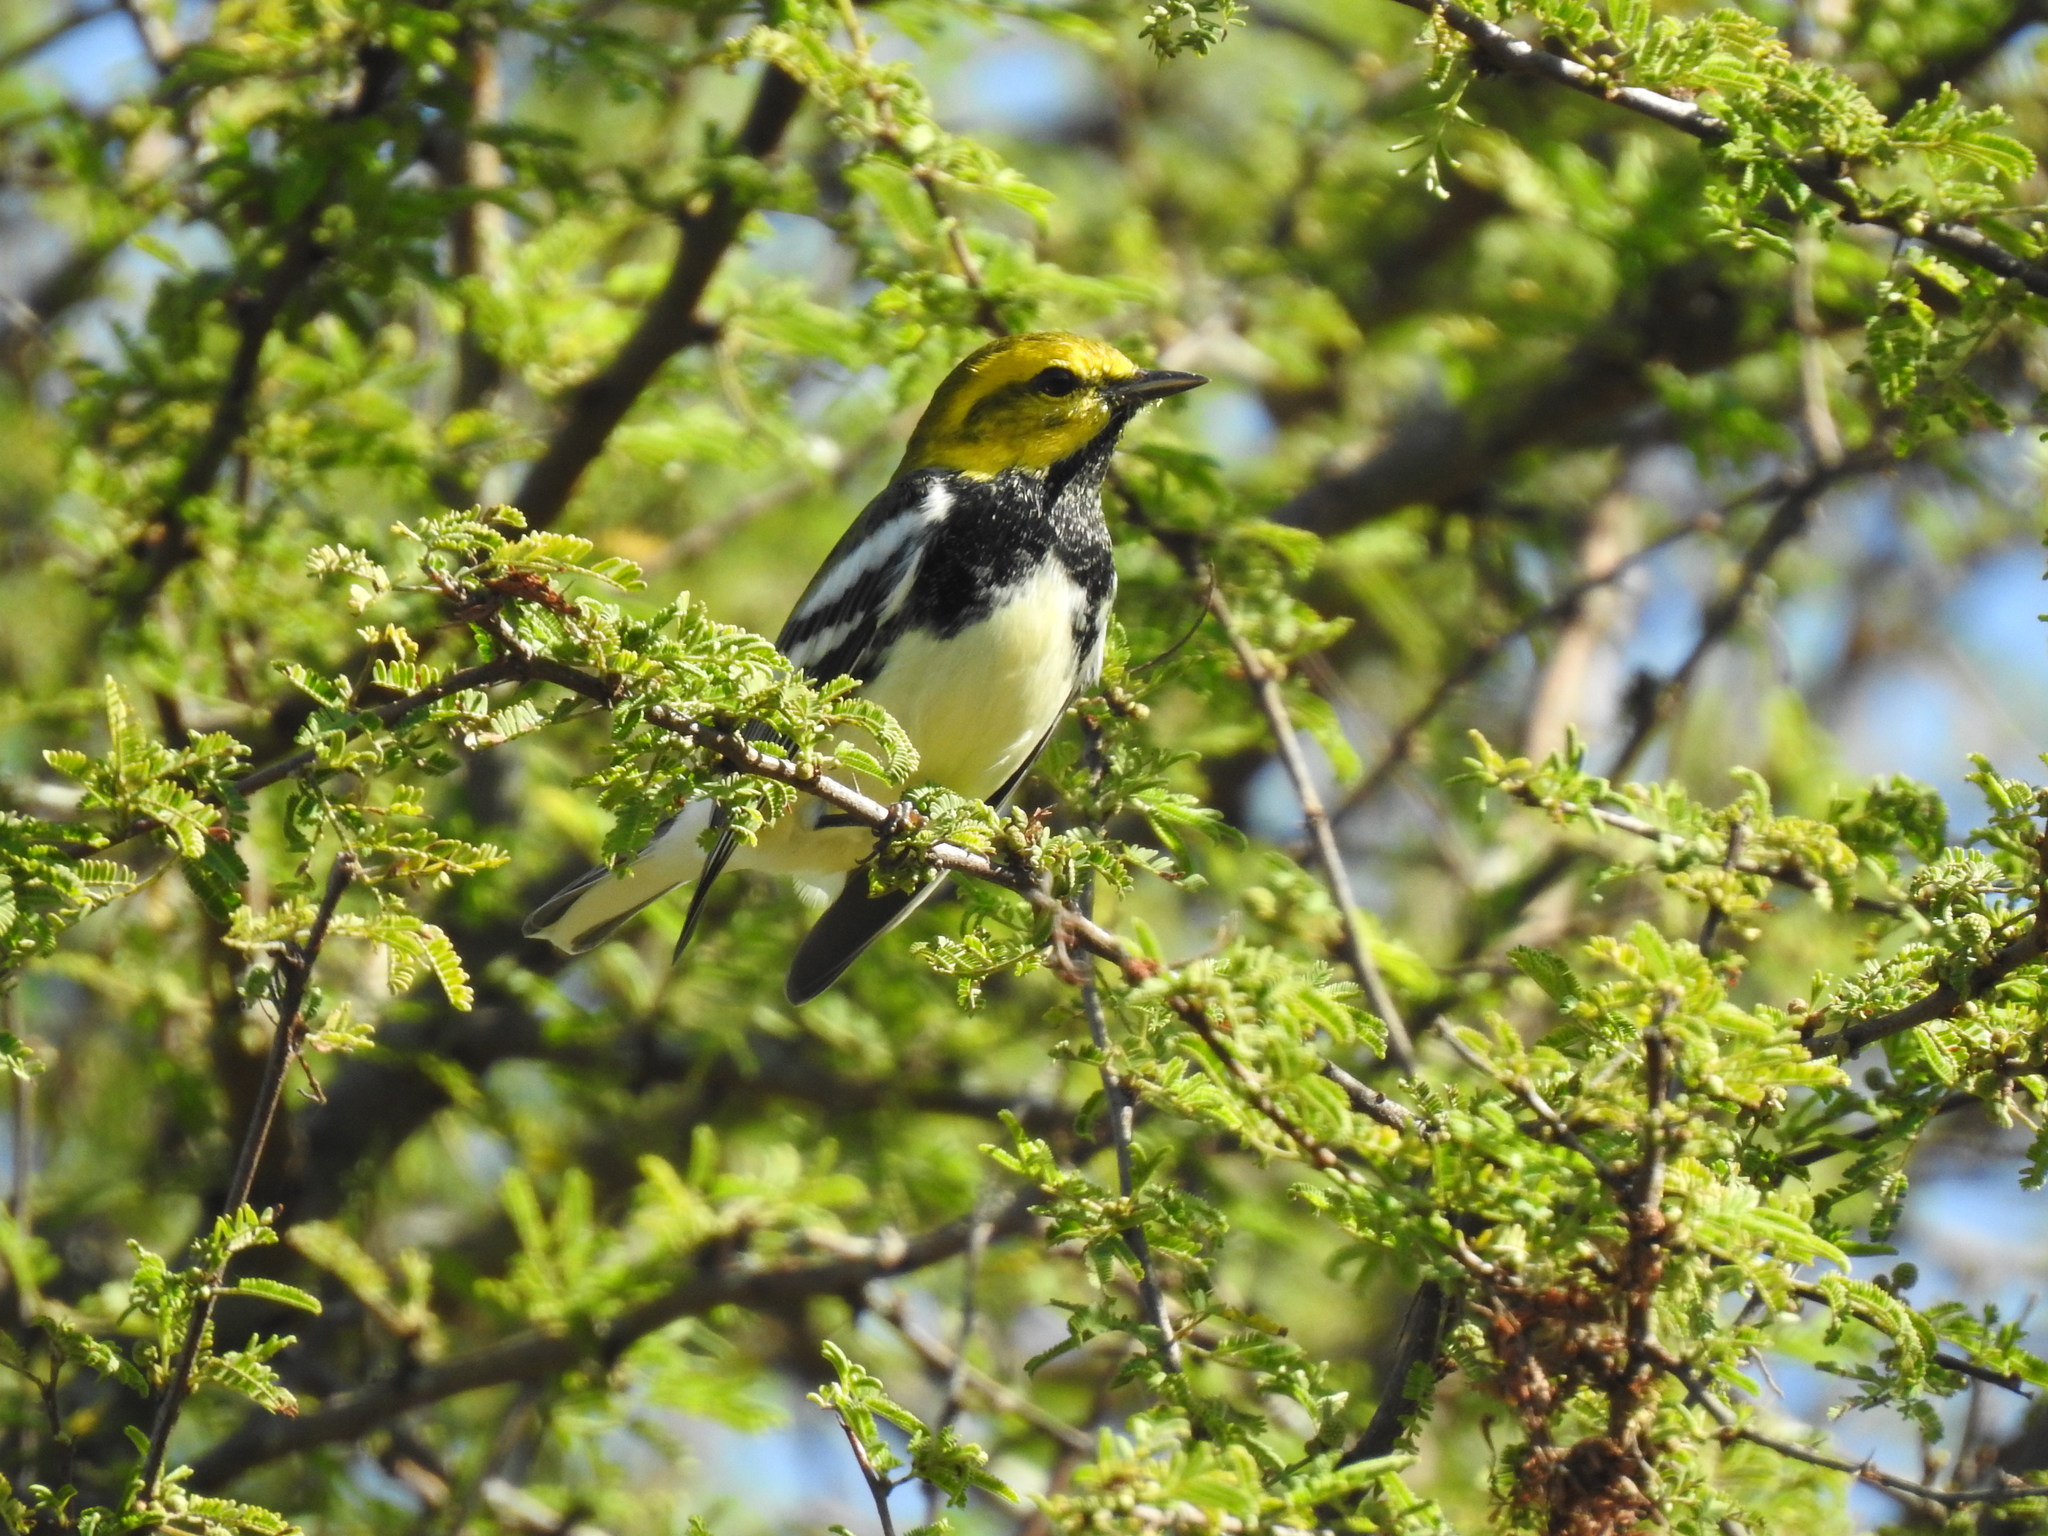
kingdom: Animalia
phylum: Chordata
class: Aves
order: Passeriformes
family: Parulidae
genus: Setophaga
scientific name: Setophaga virens
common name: Black-throated green warbler
